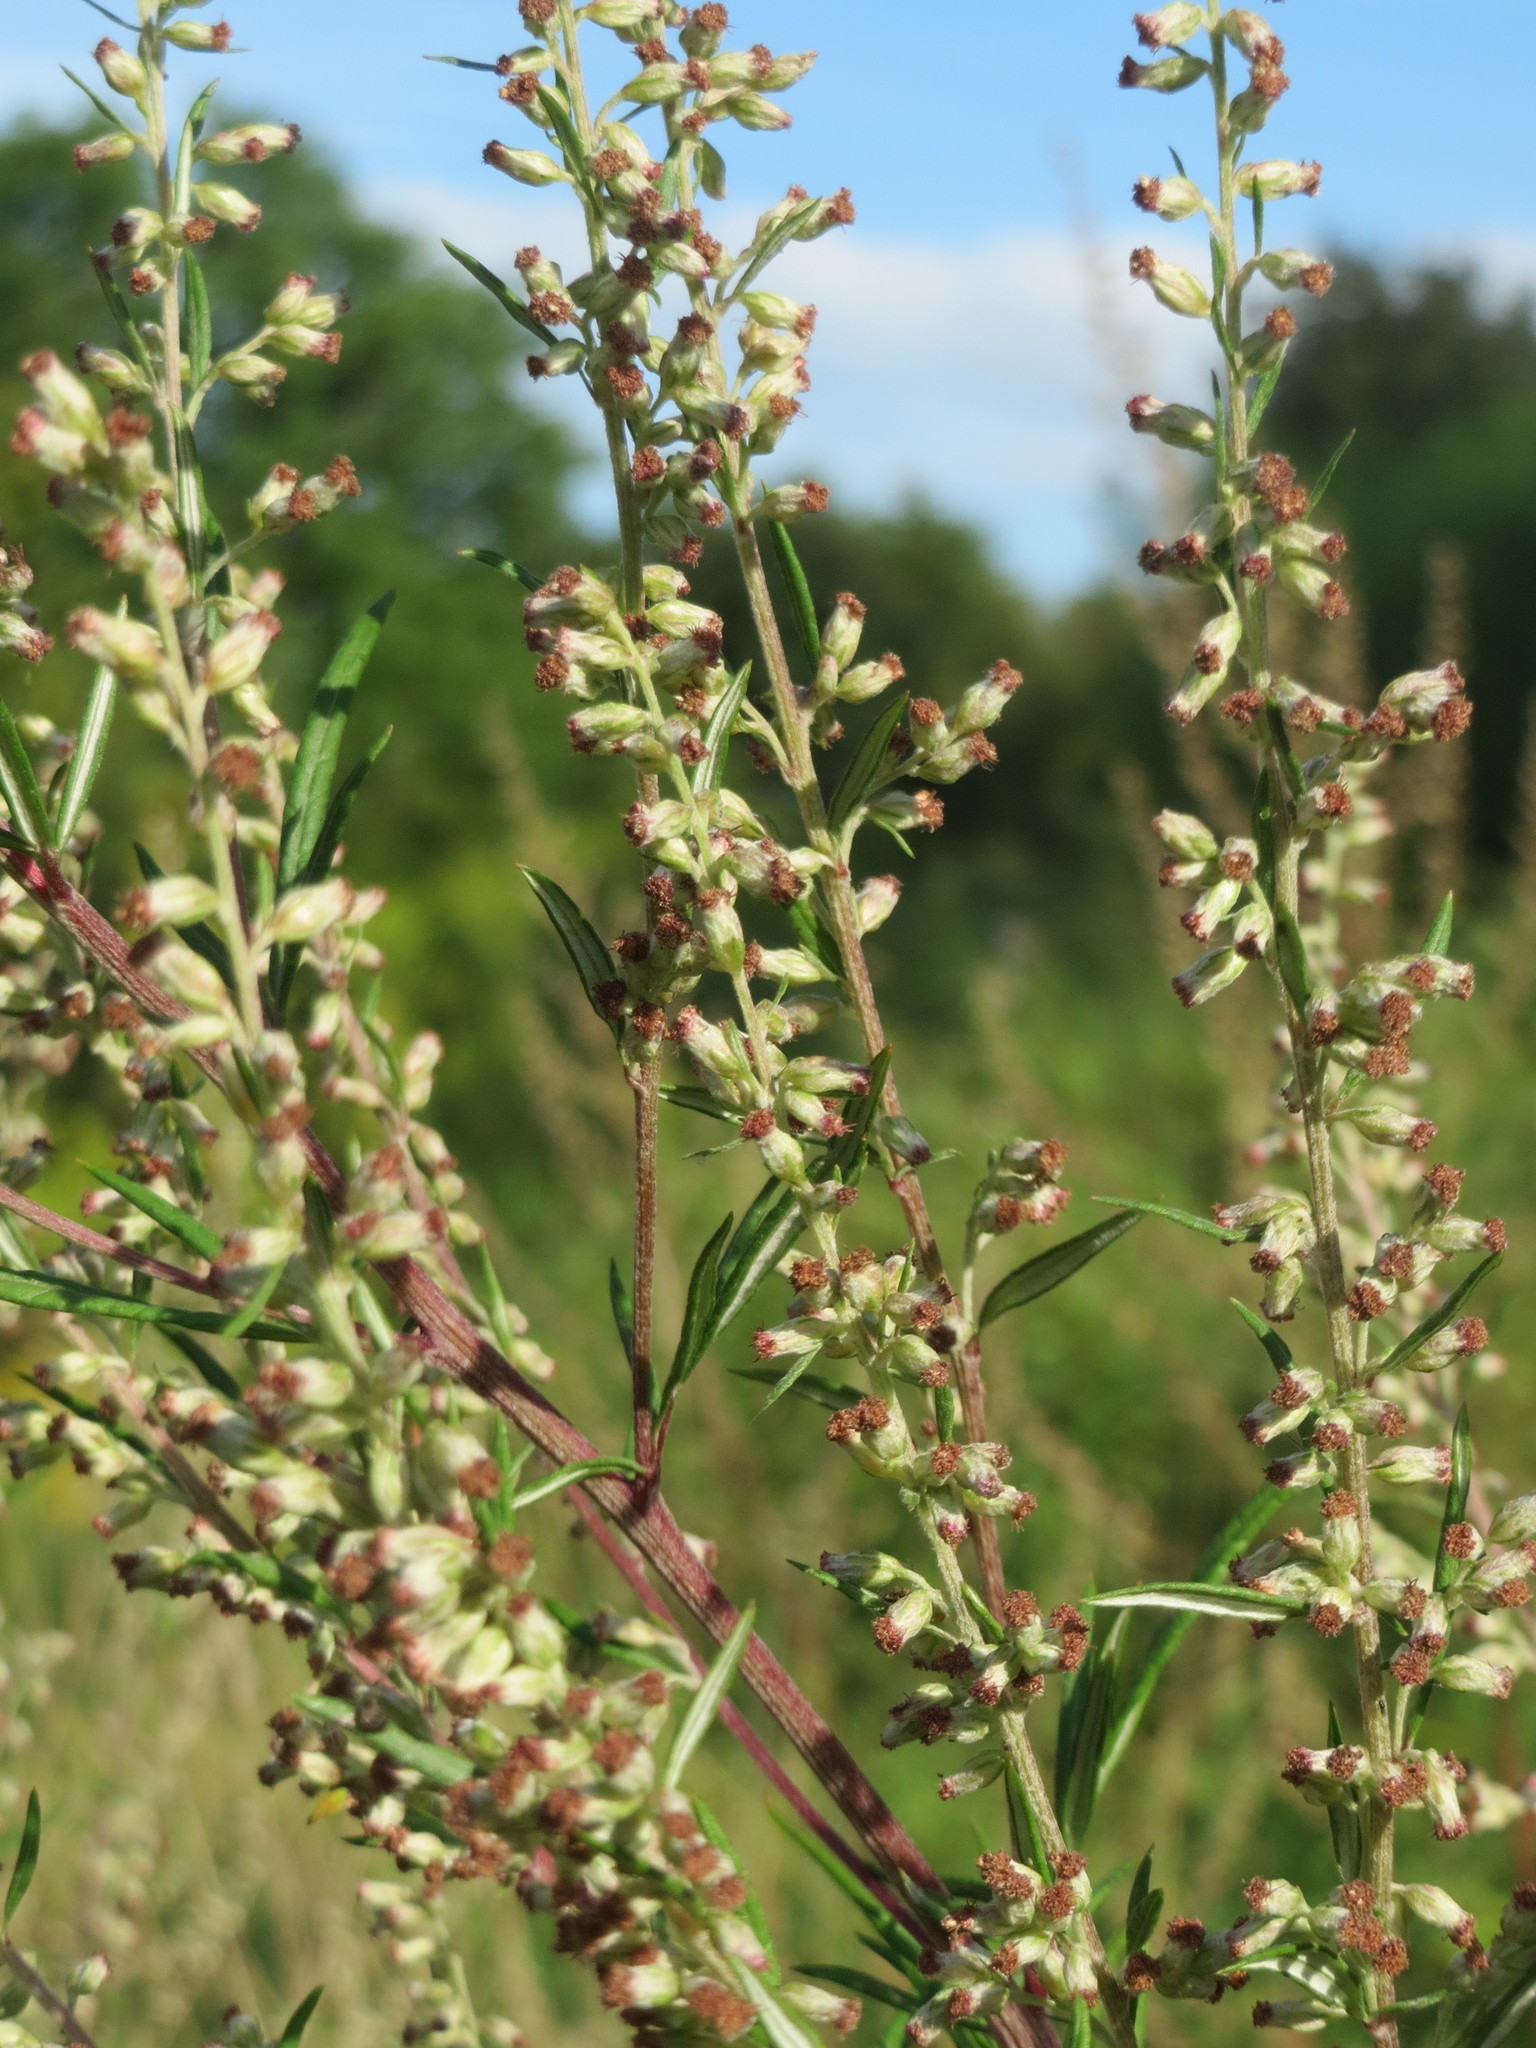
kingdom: Plantae
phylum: Tracheophyta
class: Magnoliopsida
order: Asterales
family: Asteraceae
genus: Artemisia
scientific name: Artemisia vulgaris
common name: Mugwort
